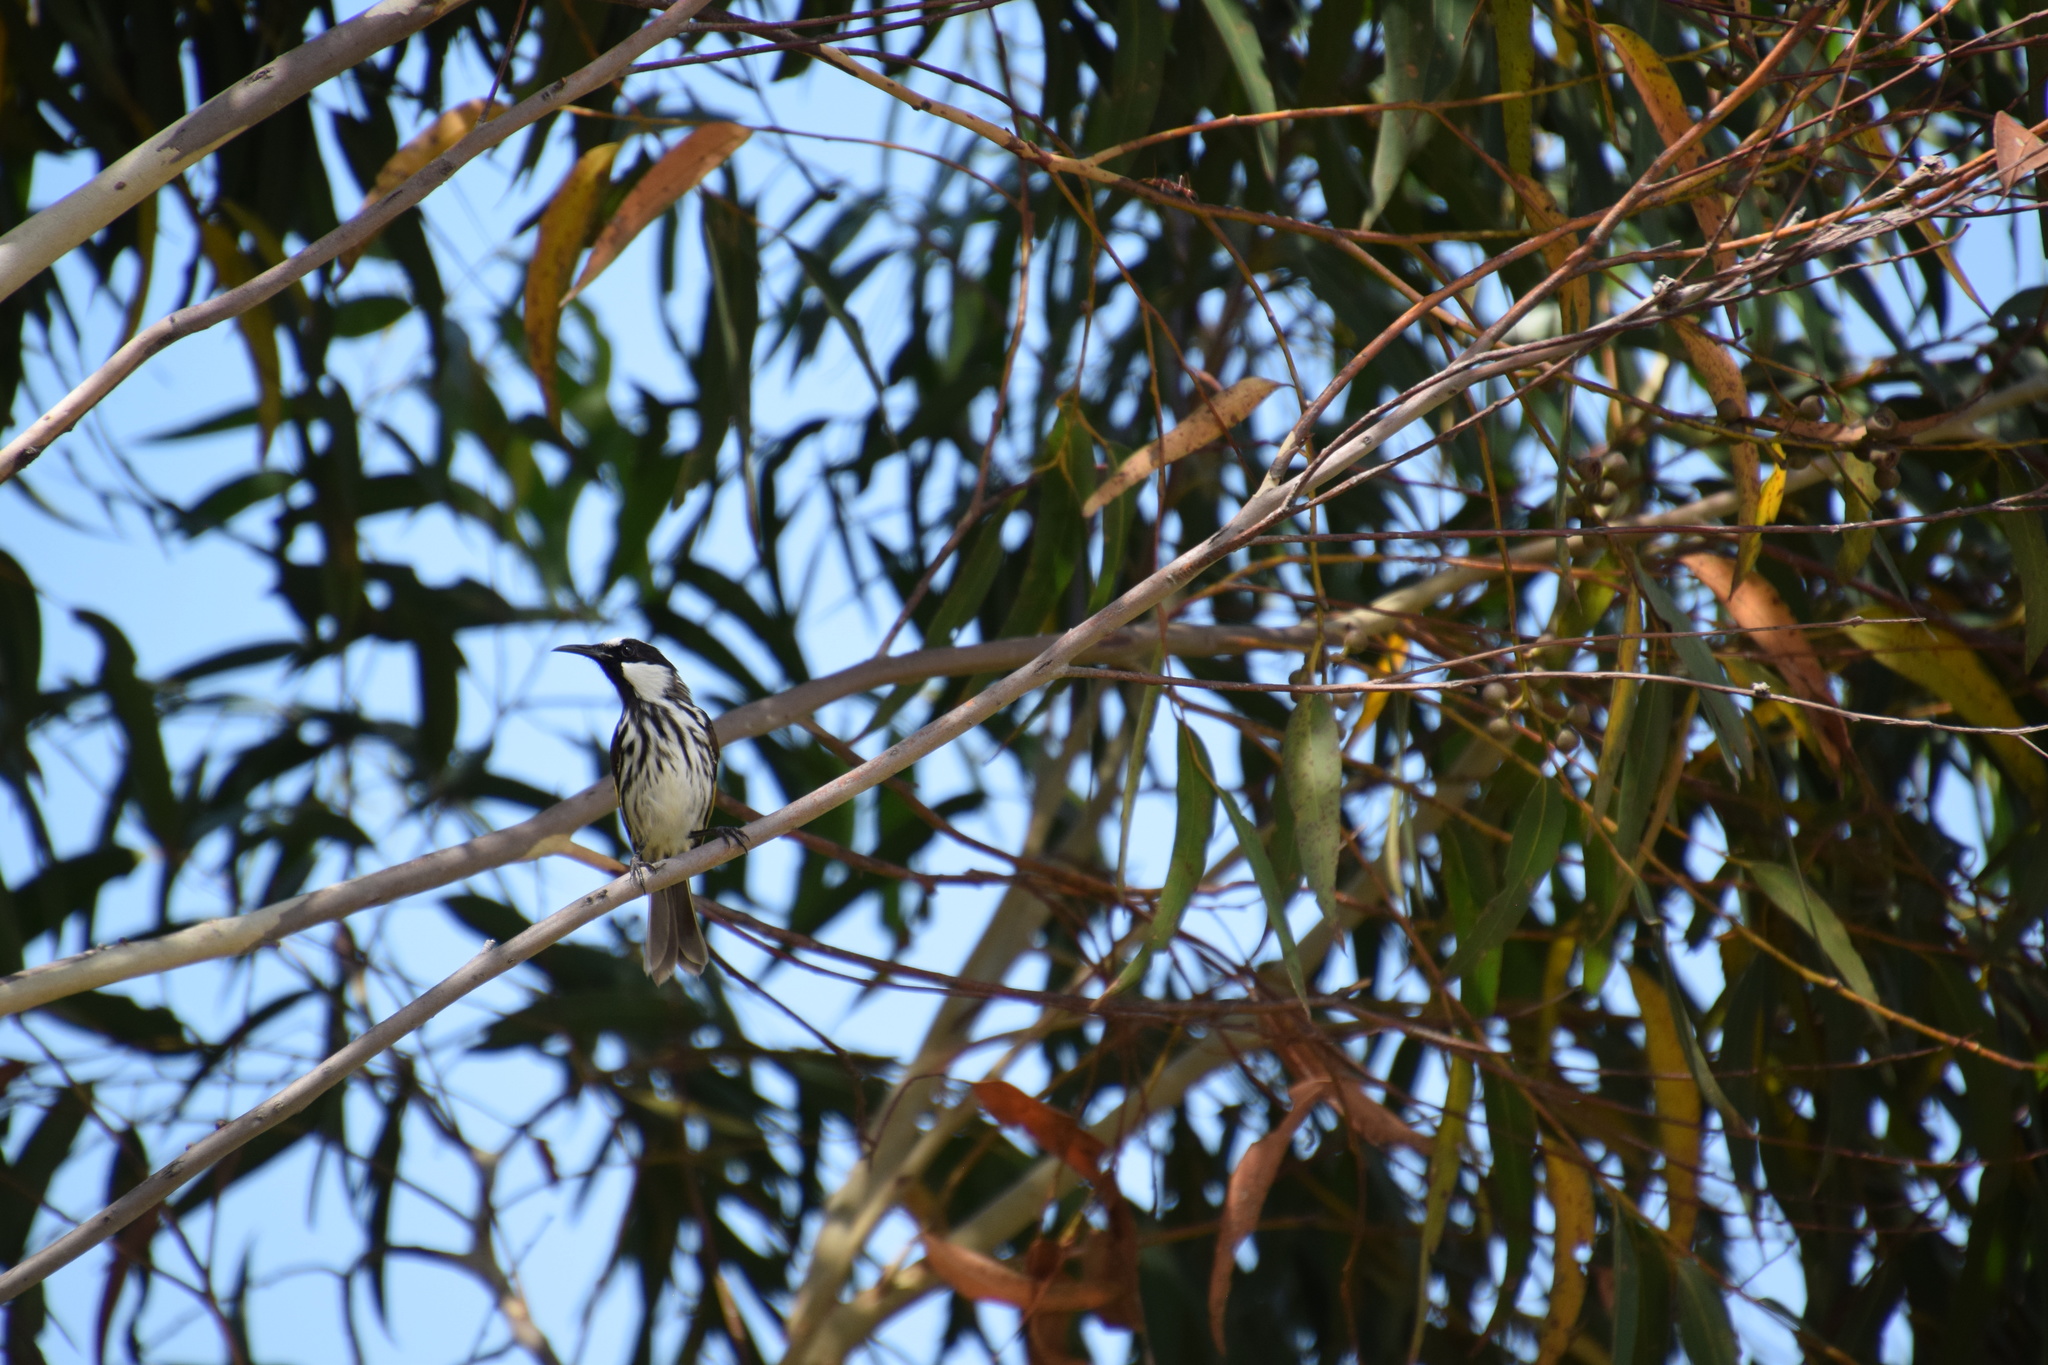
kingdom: Animalia
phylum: Chordata
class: Aves
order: Passeriformes
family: Meliphagidae
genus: Phylidonyris
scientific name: Phylidonyris niger
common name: White-cheeked honeyeater
